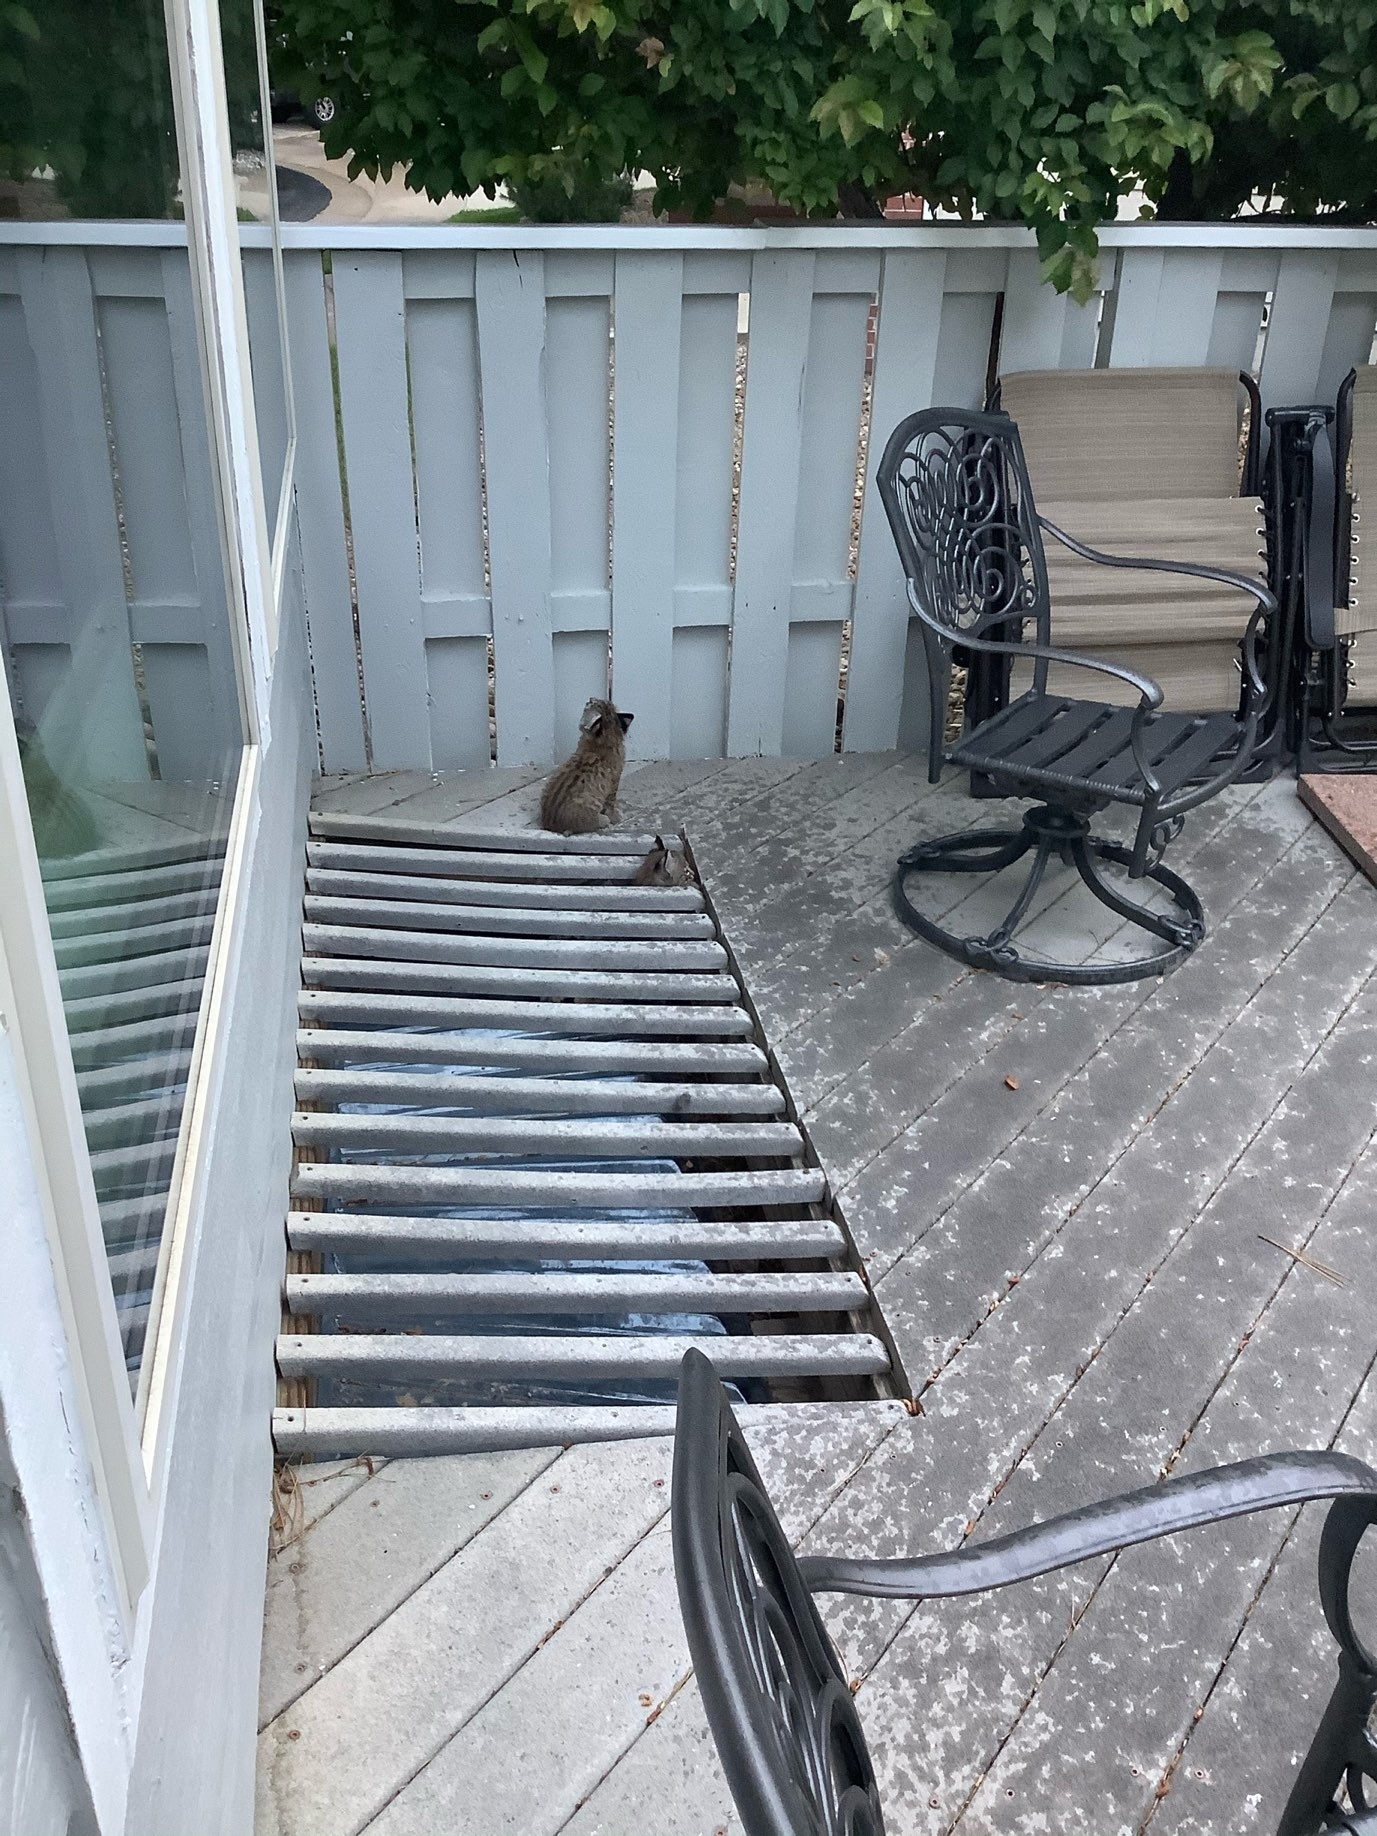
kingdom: Animalia
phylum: Chordata
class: Mammalia
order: Carnivora
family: Felidae
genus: Lynx
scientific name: Lynx rufus
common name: Bobcat
